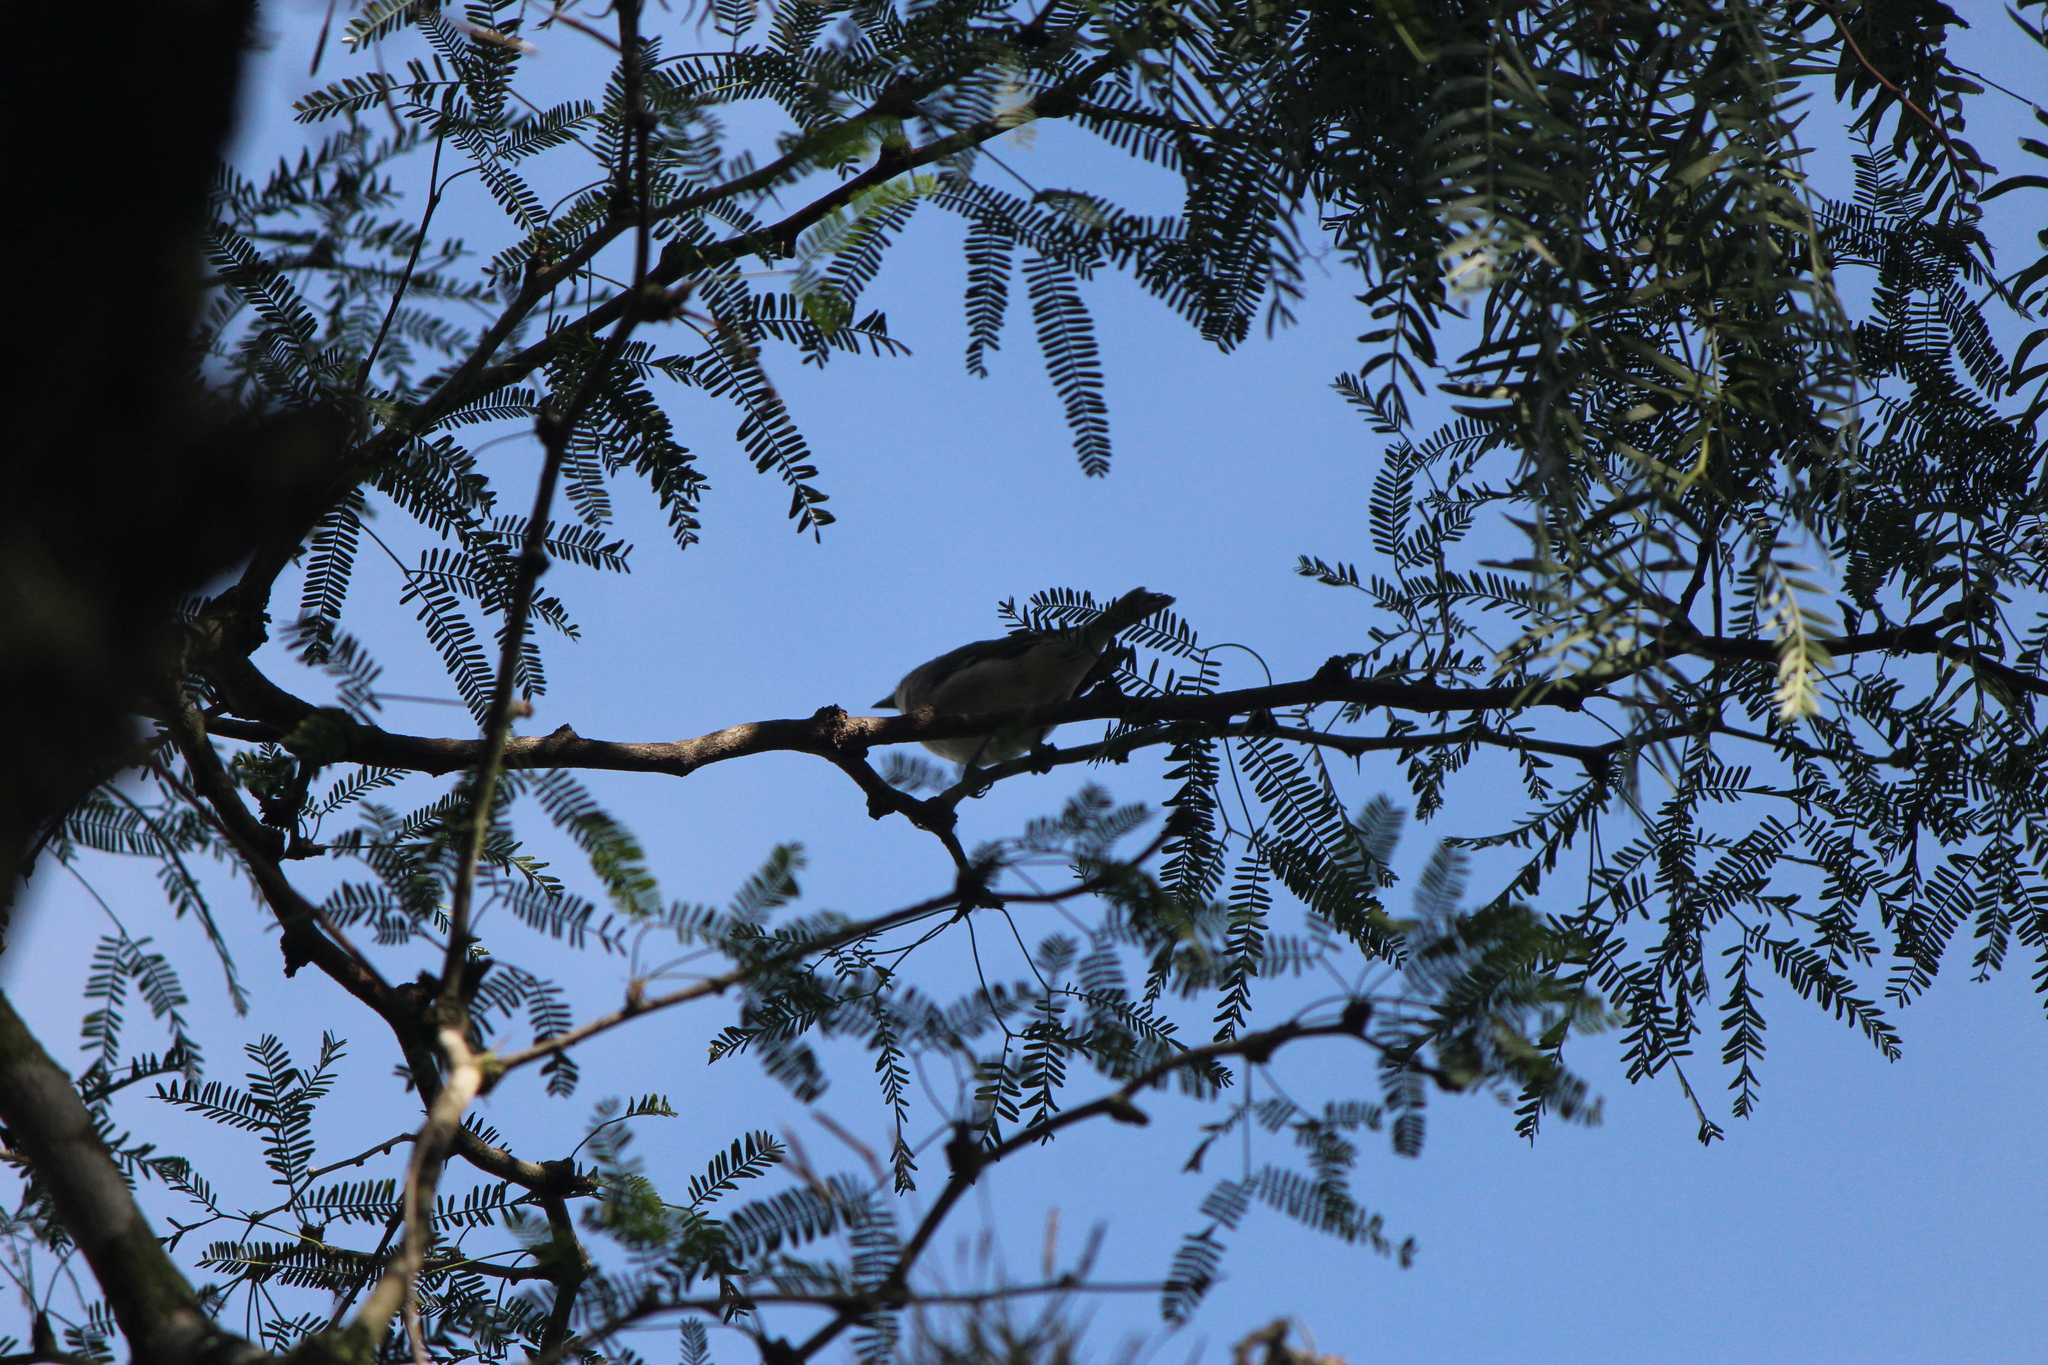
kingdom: Animalia
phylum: Chordata
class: Aves
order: Passeriformes
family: Vireonidae
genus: Vireo
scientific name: Vireo cassinii
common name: Cassin's vireo
